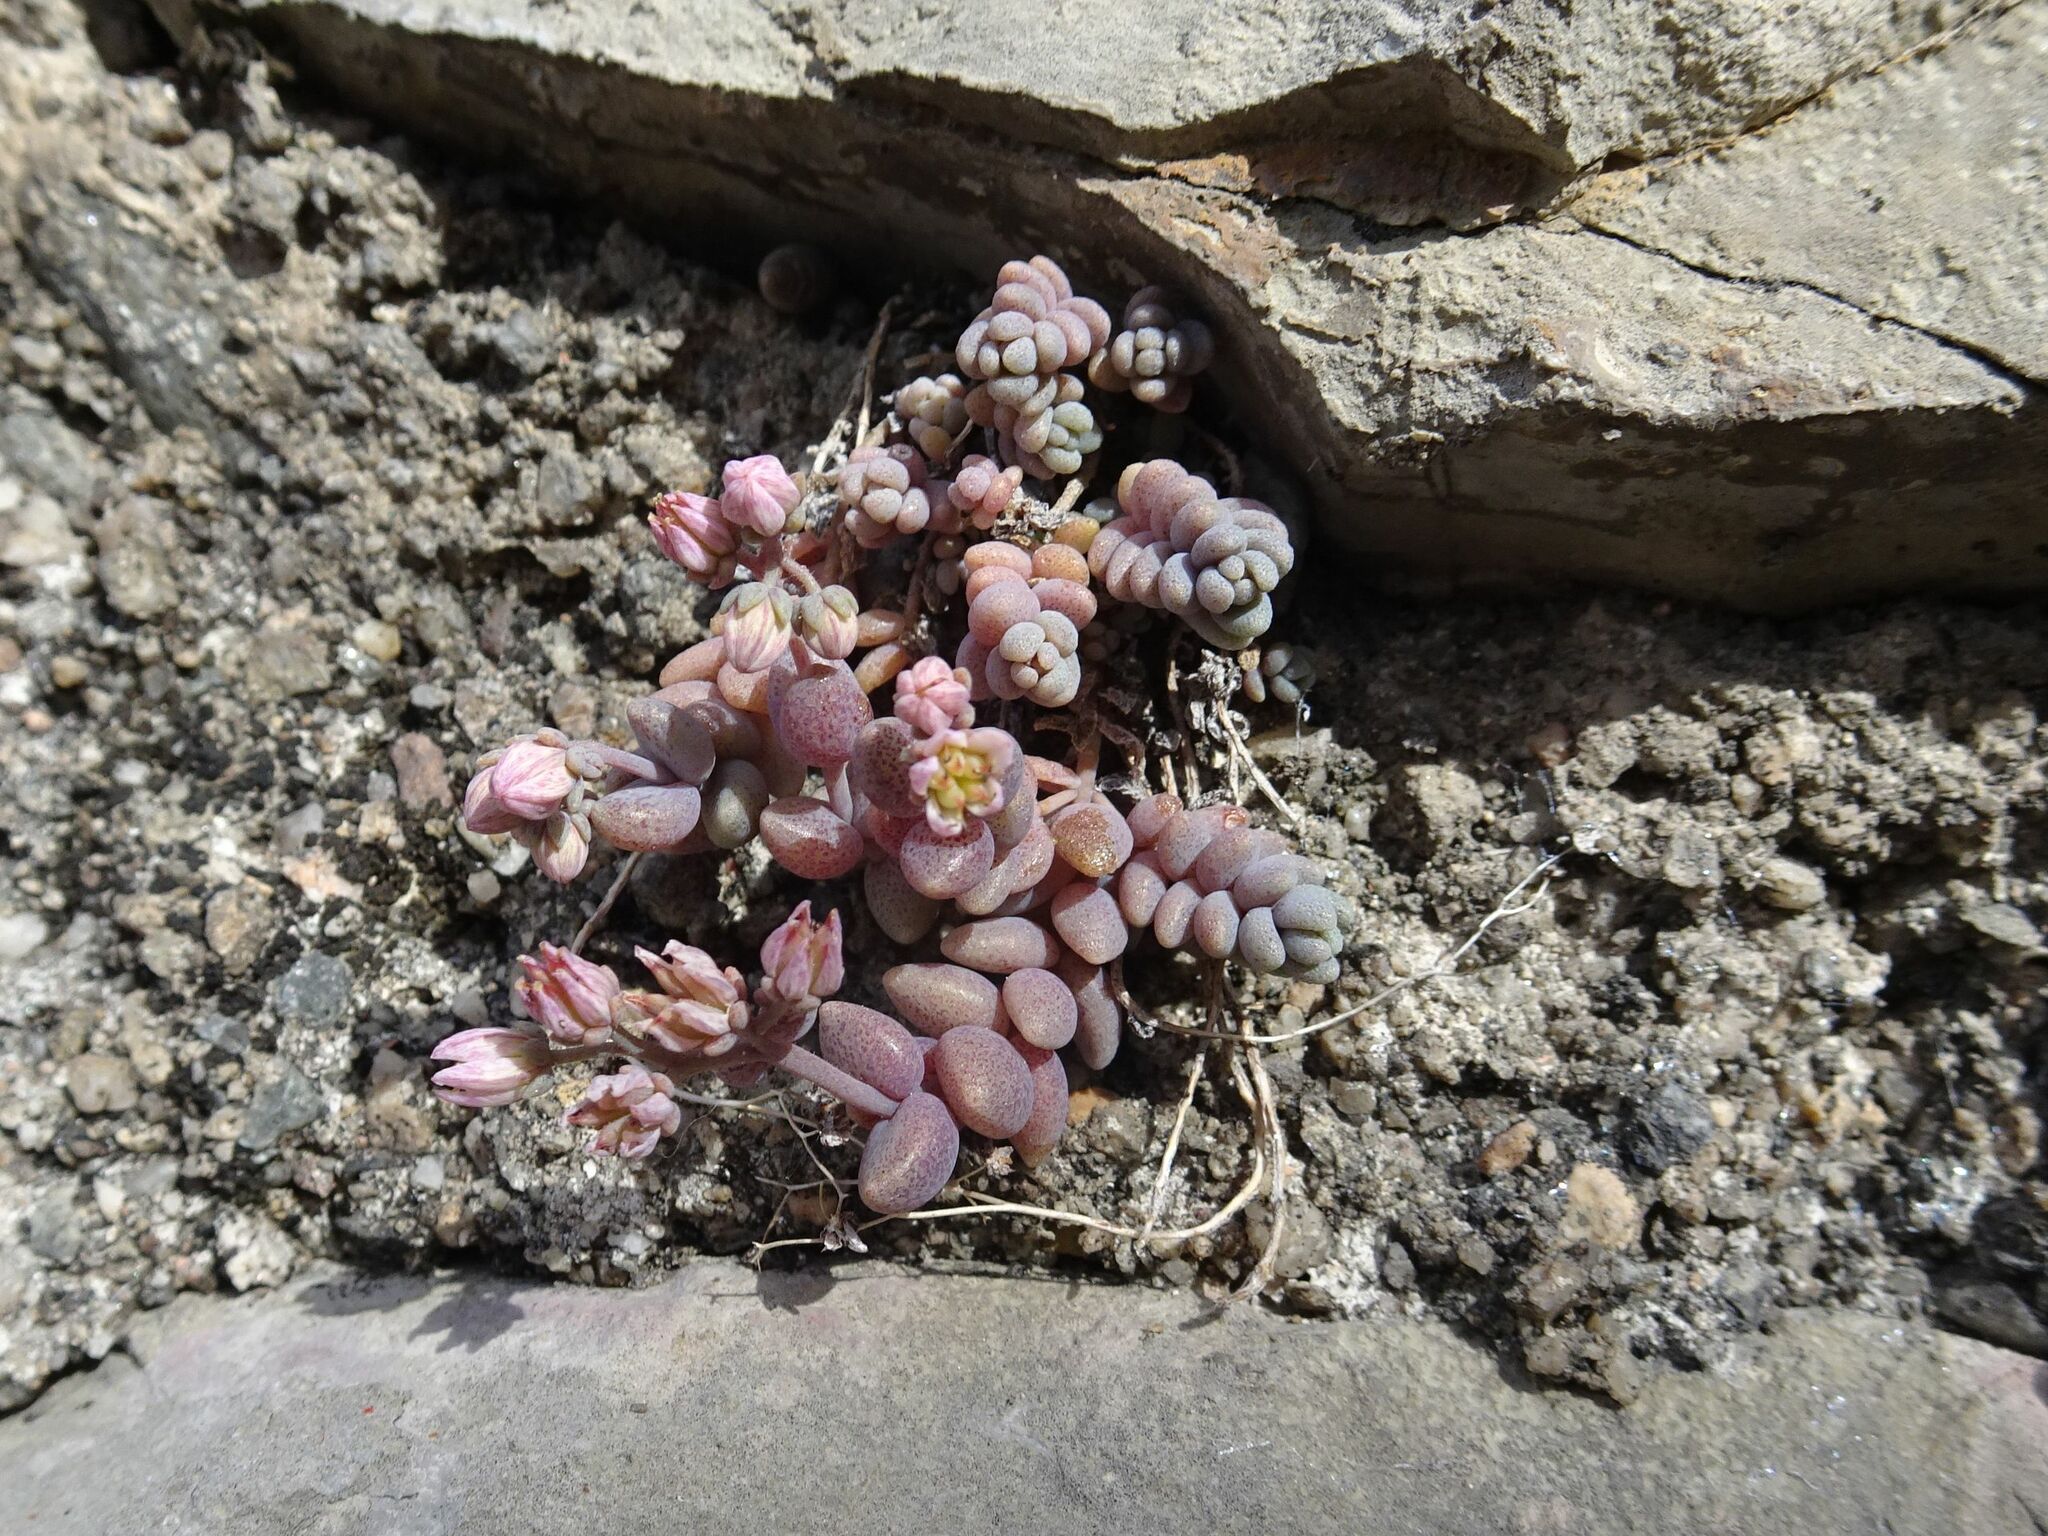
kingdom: Plantae
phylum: Tracheophyta
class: Magnoliopsida
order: Saxifragales
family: Crassulaceae
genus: Sedum
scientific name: Sedum dasyphyllum
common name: Thick-leaf stonecrop
